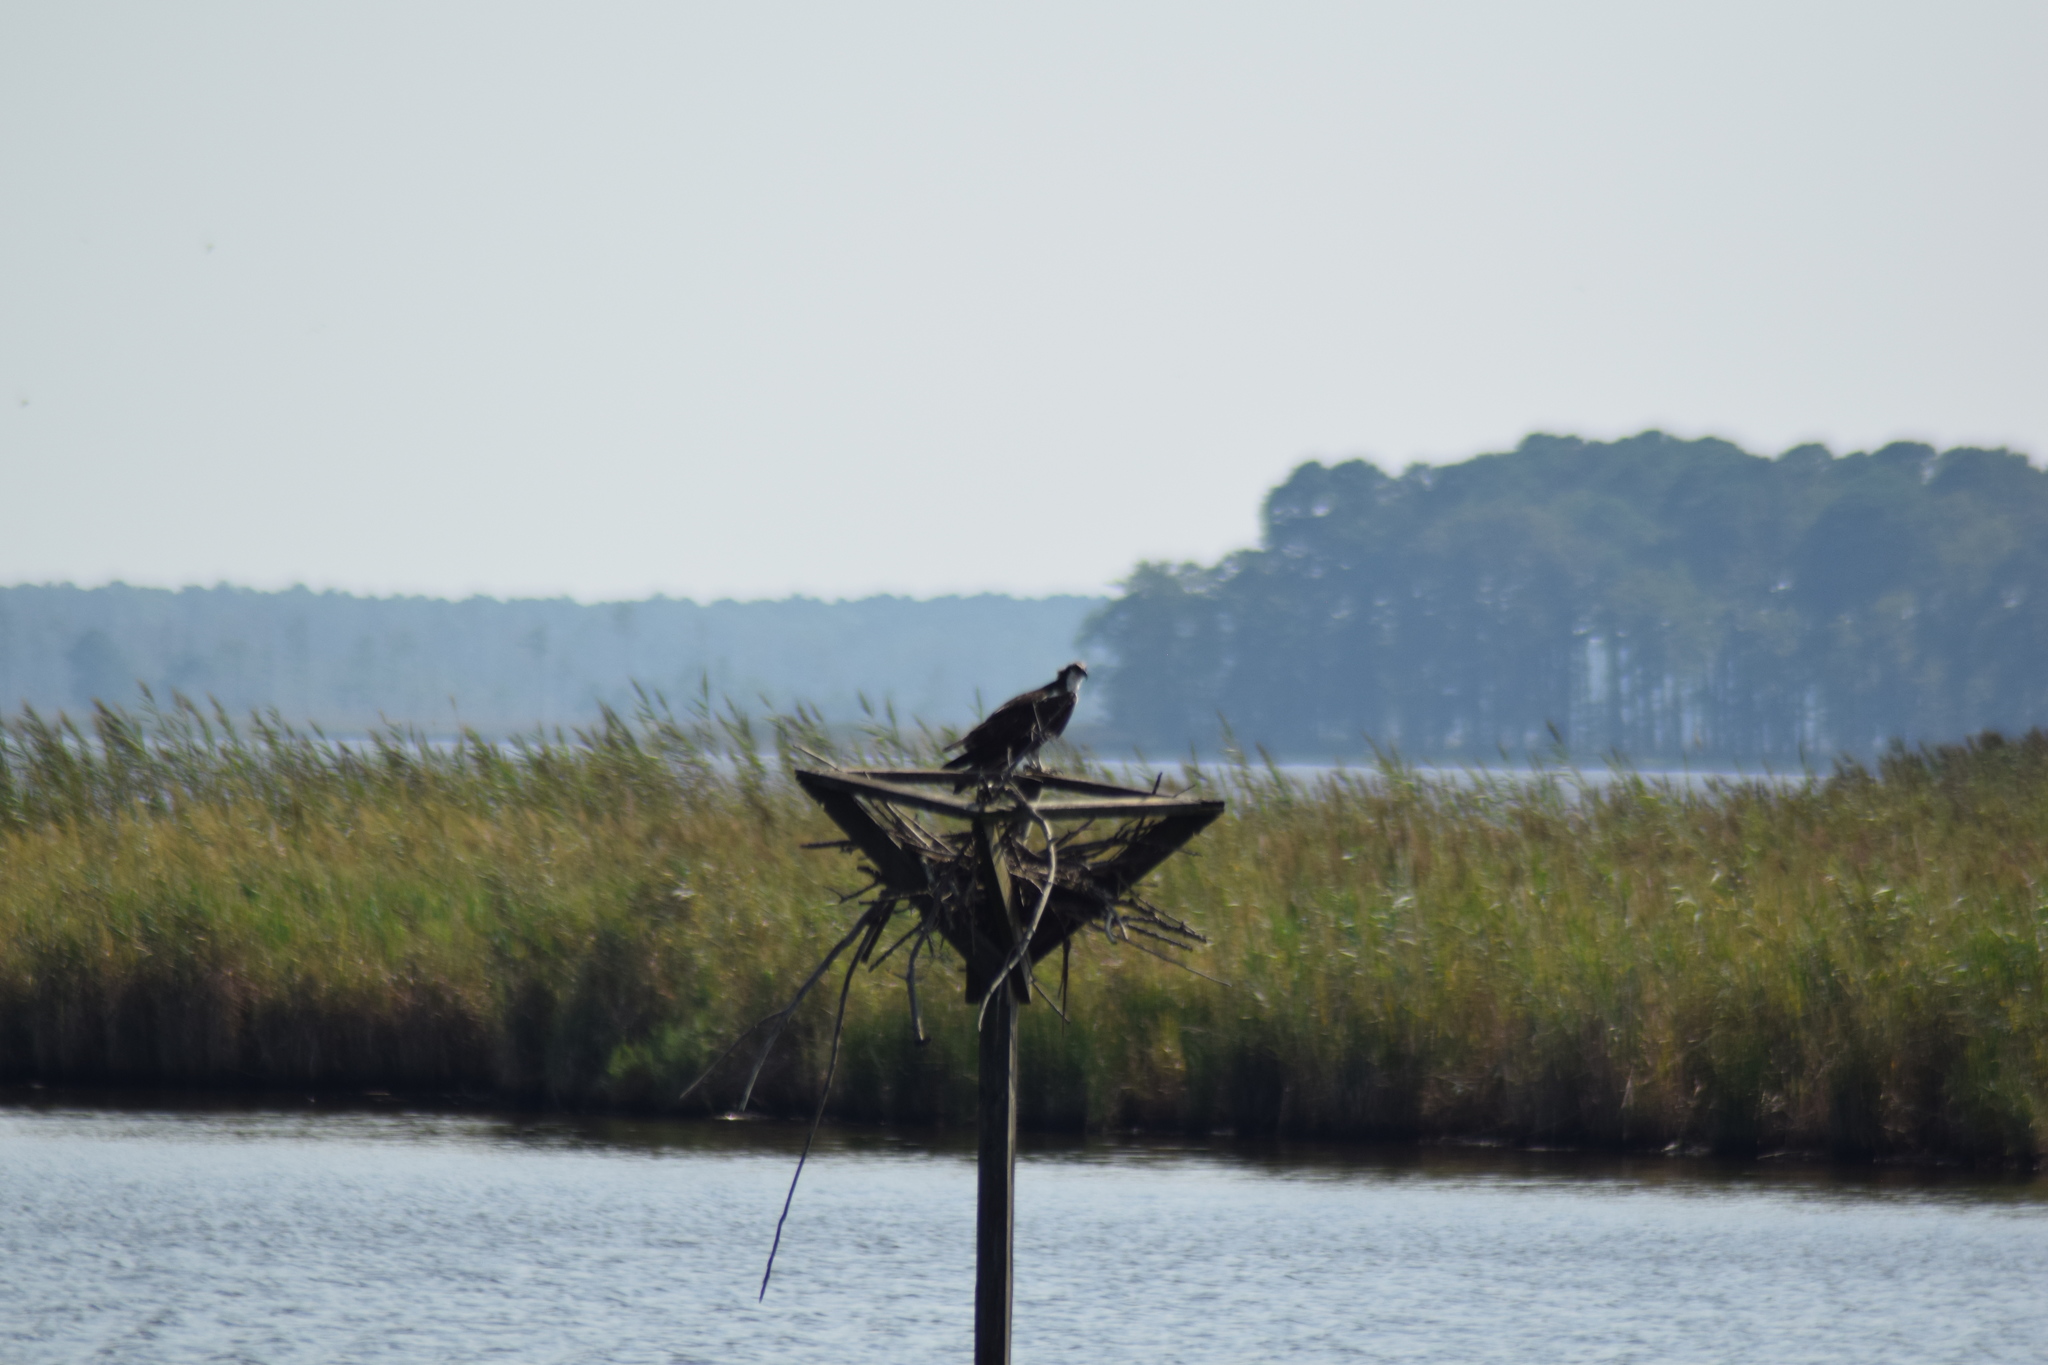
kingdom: Animalia
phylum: Chordata
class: Aves
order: Accipitriformes
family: Pandionidae
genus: Pandion
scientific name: Pandion haliaetus
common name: Osprey
